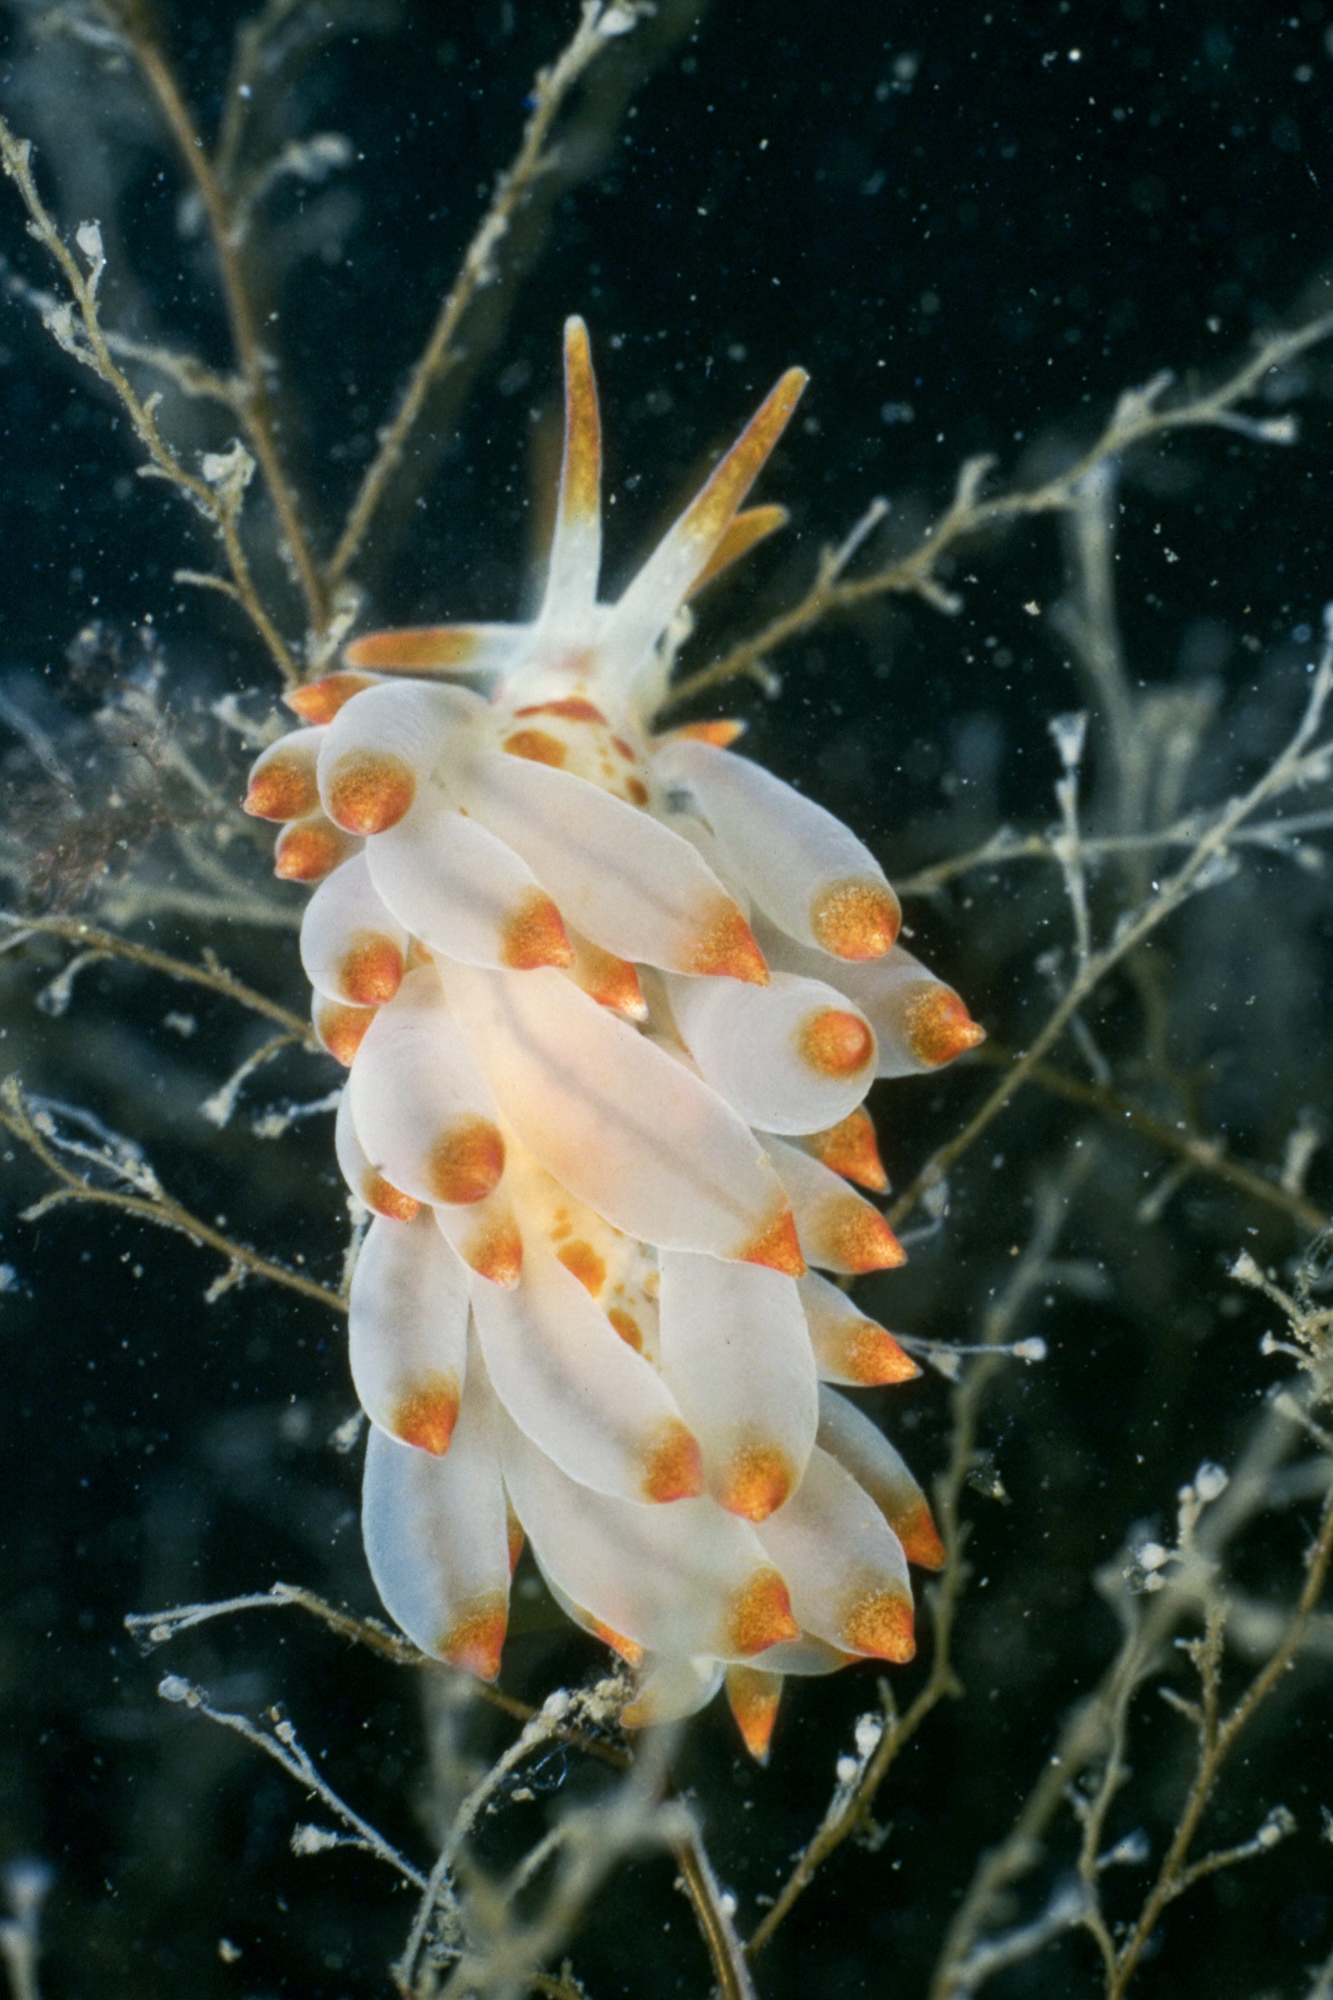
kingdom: Animalia
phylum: Mollusca
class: Gastropoda
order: Nudibranchia
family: Eubranchidae
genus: Amphorina
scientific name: Amphorina farrani
